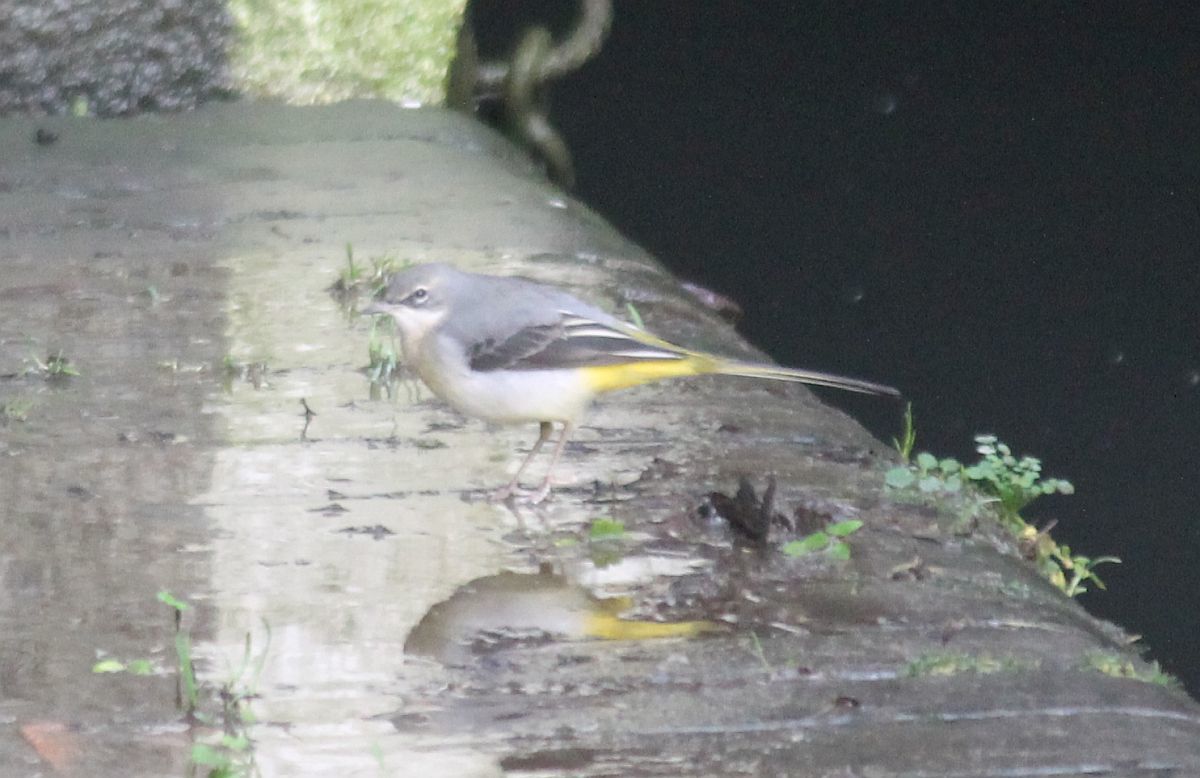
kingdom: Animalia
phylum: Chordata
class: Aves
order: Passeriformes
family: Motacillidae
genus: Motacilla
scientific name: Motacilla cinerea
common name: Grey wagtail
